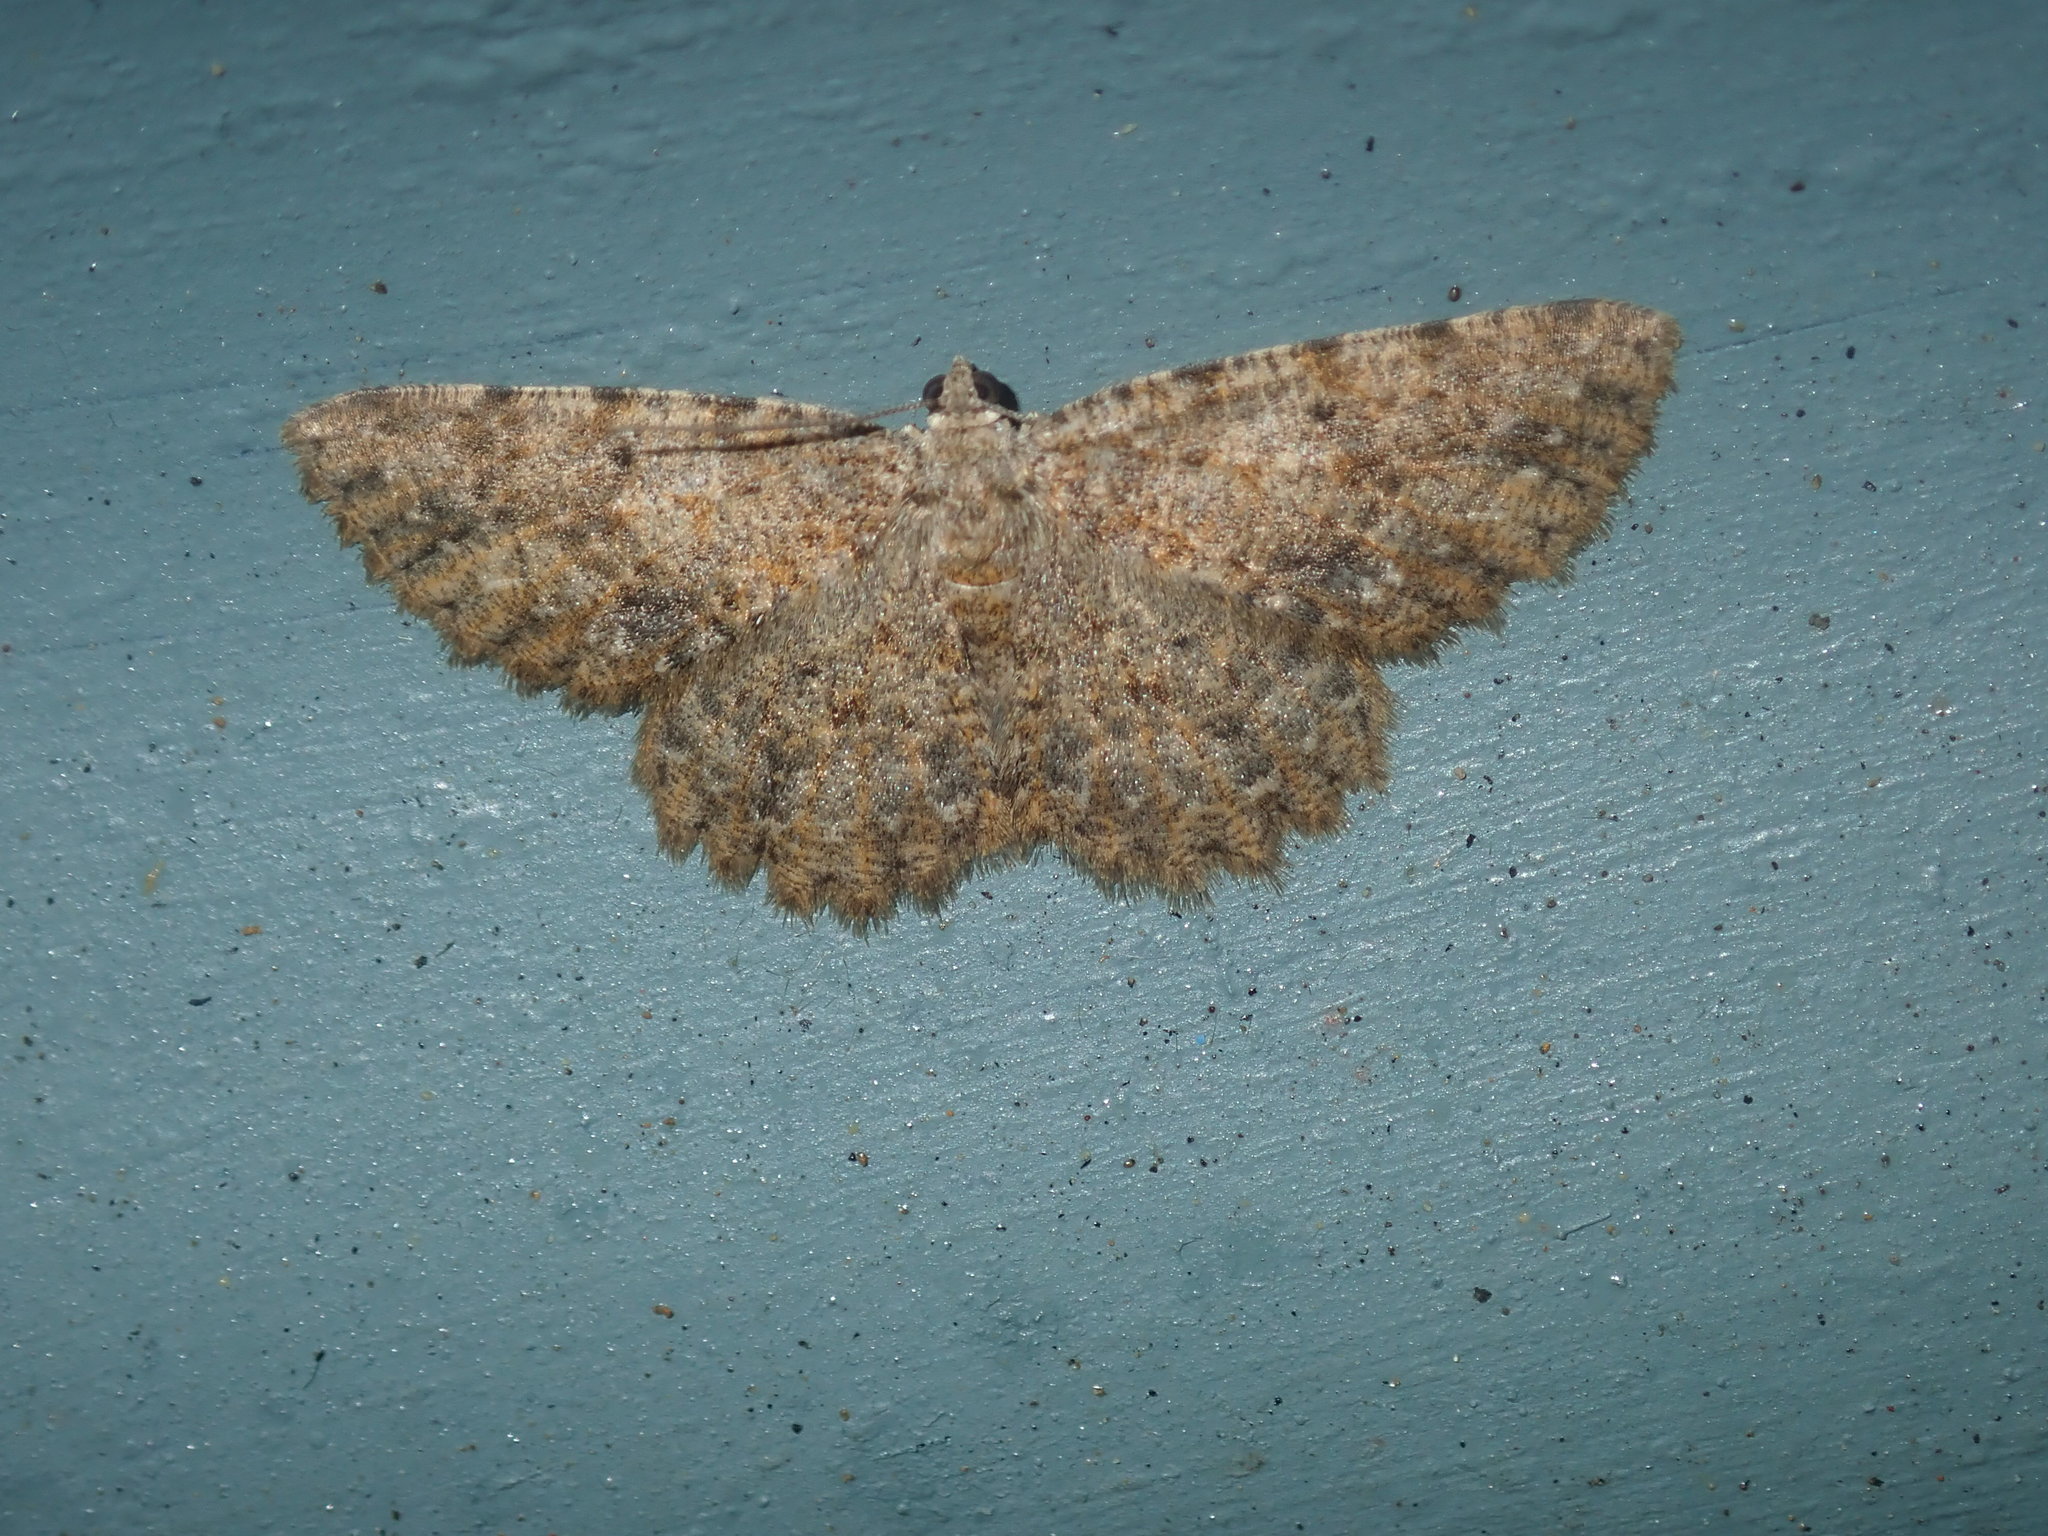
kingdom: Animalia
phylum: Arthropoda
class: Insecta
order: Lepidoptera
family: Geometridae
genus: Thallogama
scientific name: Thallogama destinataria
